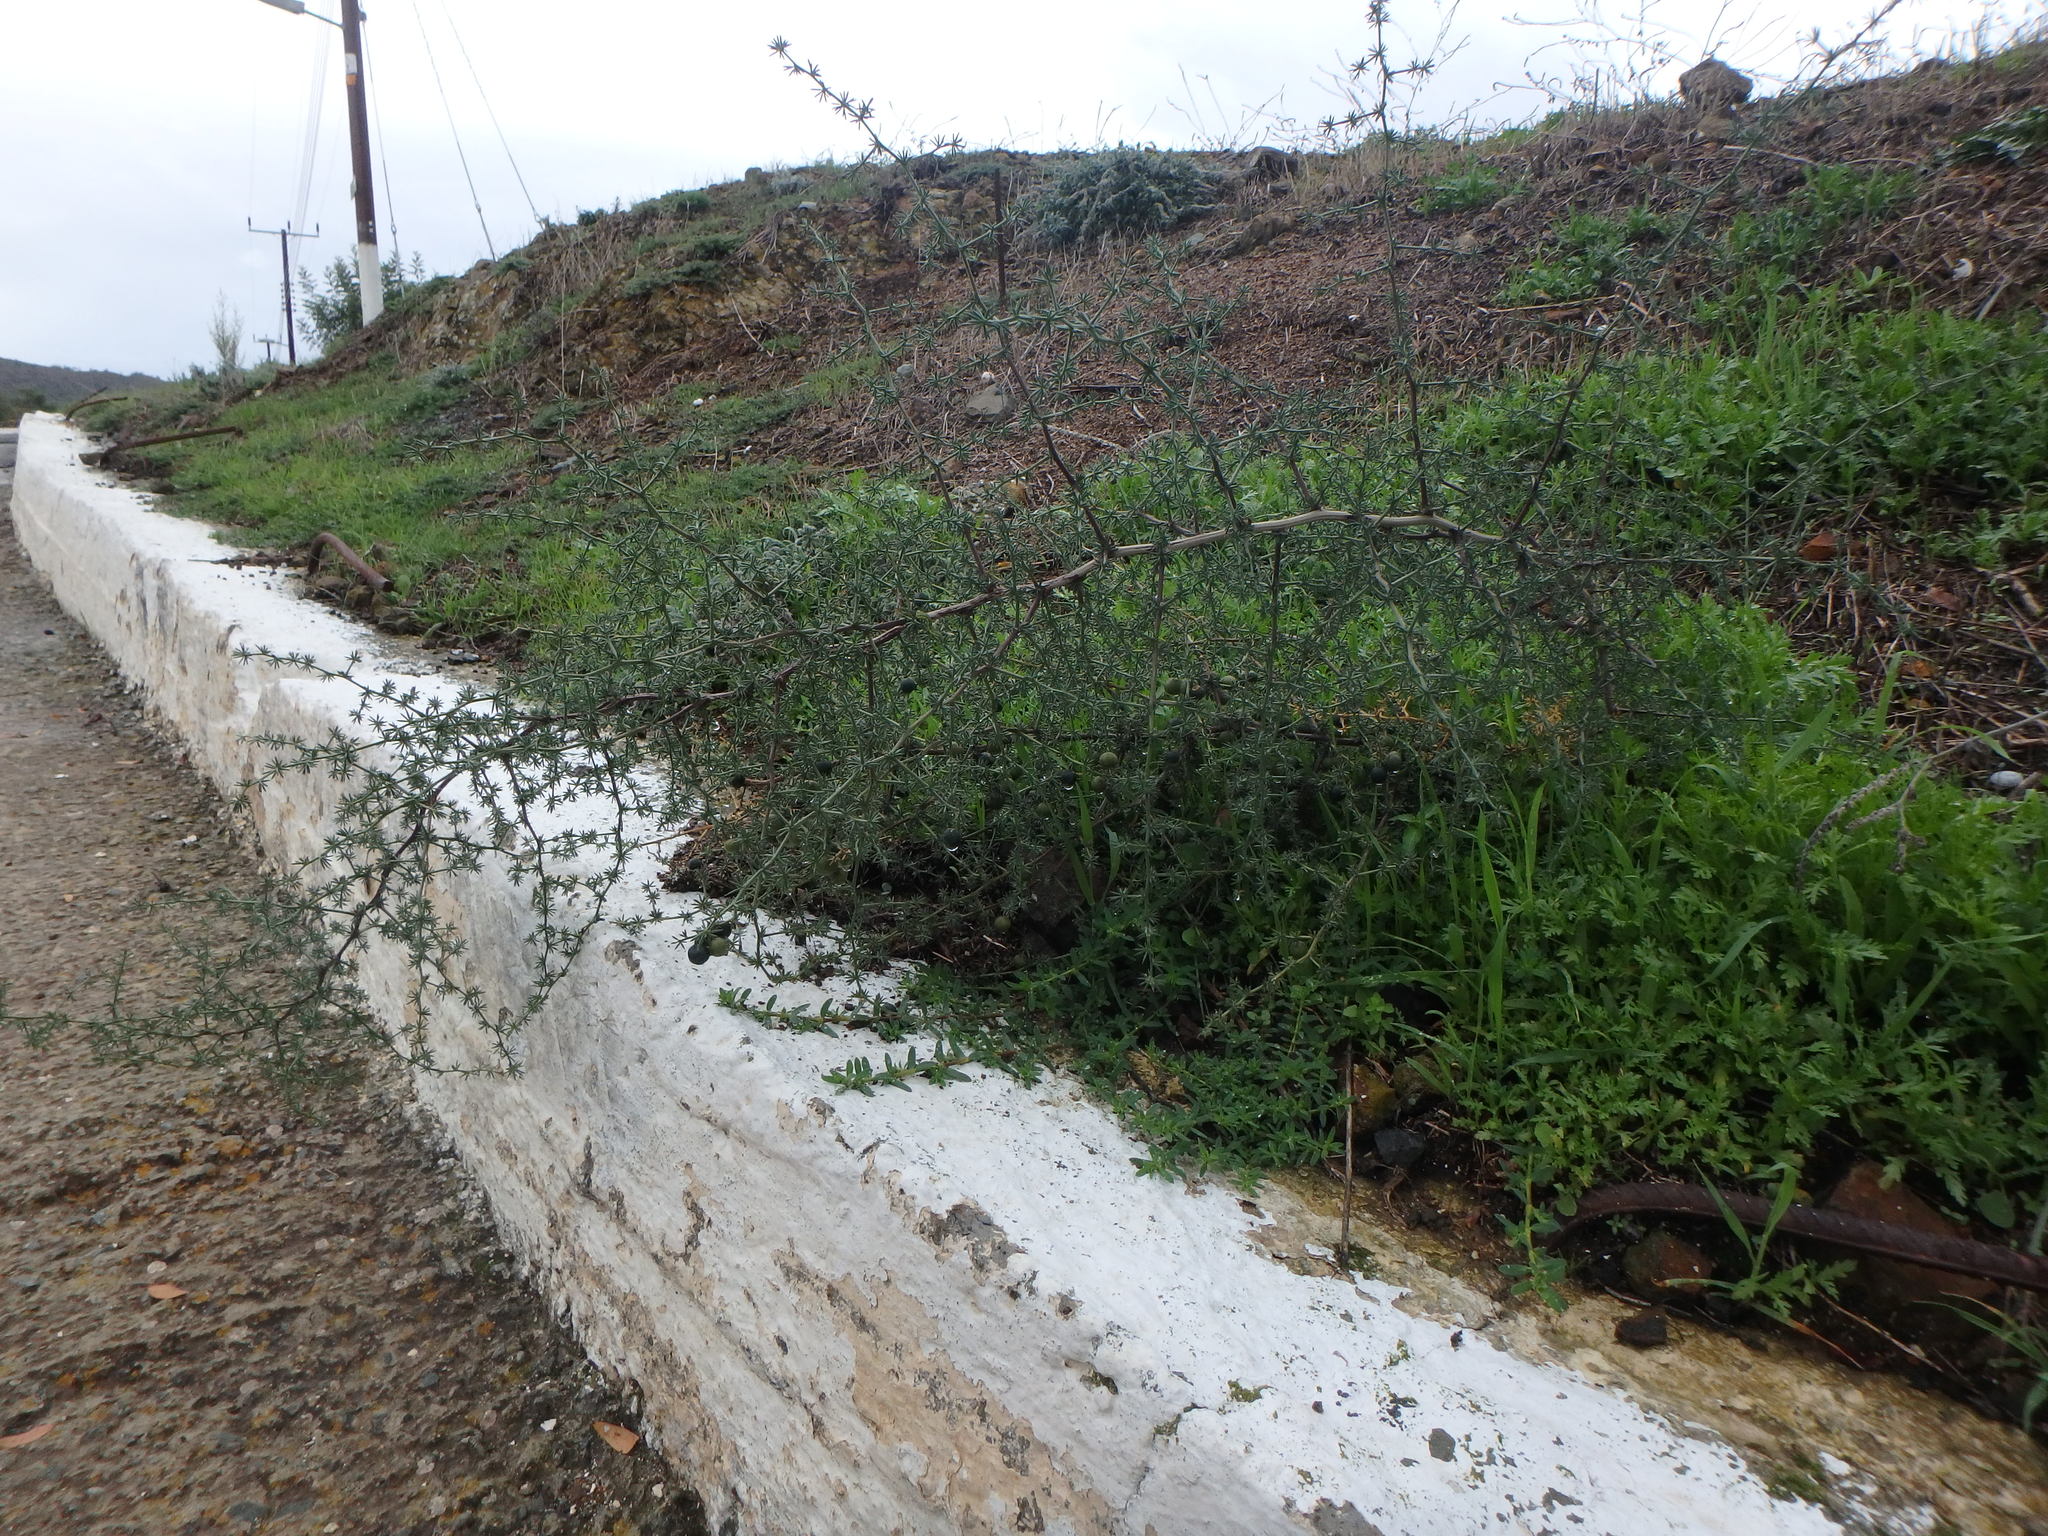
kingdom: Plantae
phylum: Tracheophyta
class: Liliopsida
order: Asparagales
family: Asparagaceae
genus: Asparagus
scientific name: Asparagus acutifolius
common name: Wild asparagus
